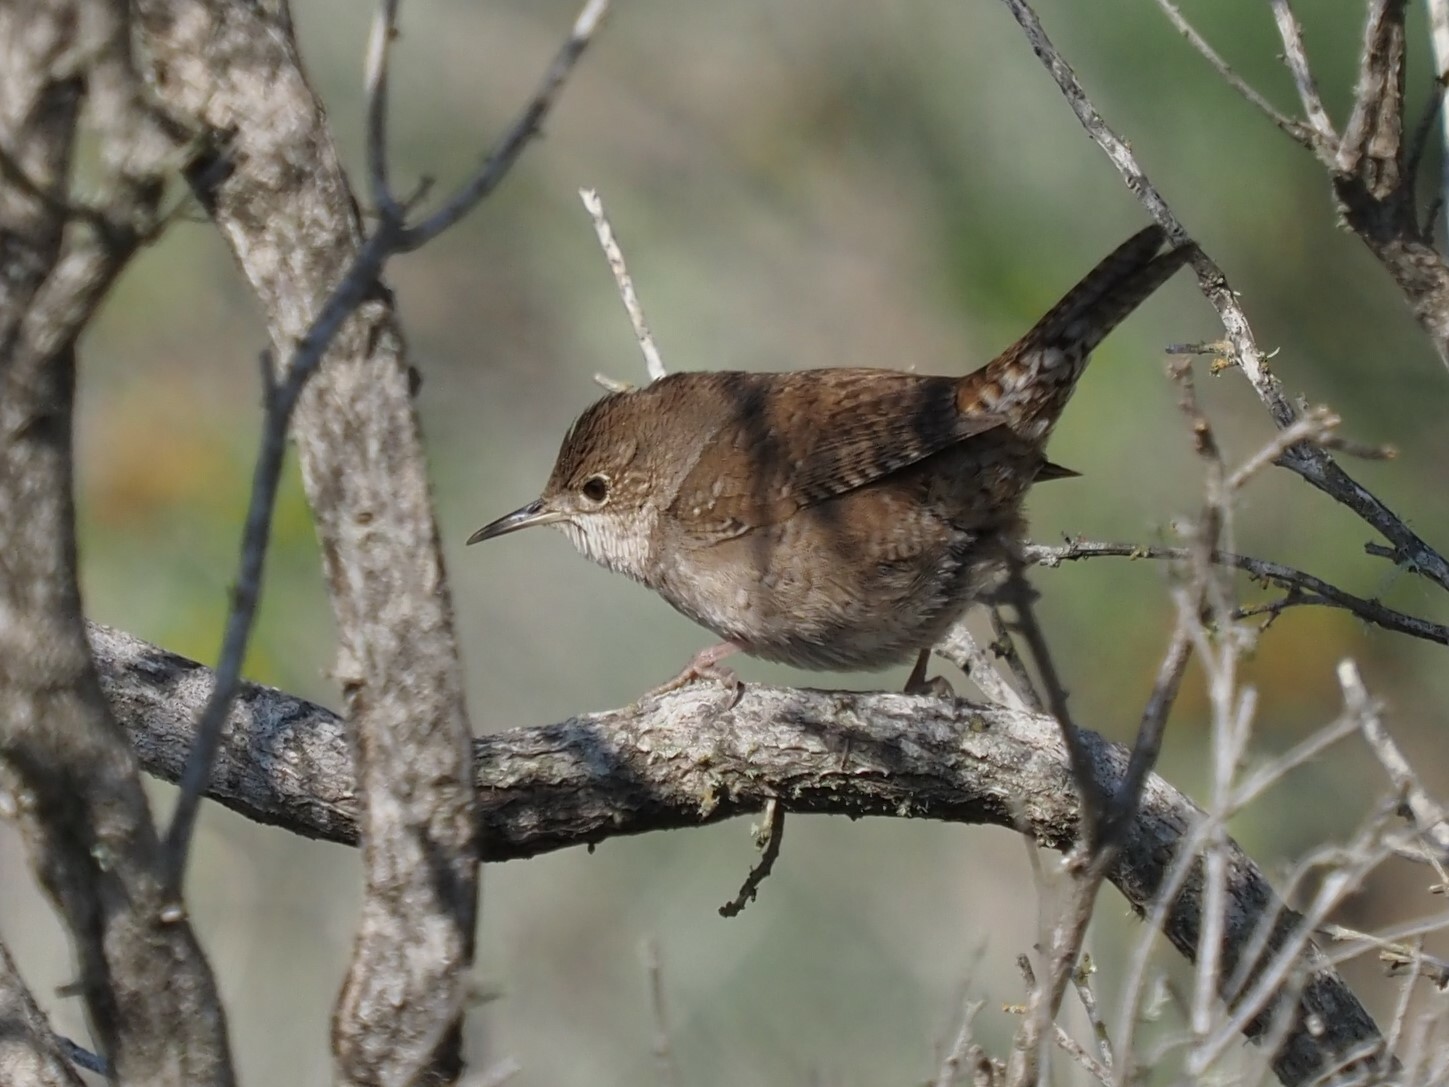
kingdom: Animalia
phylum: Chordata
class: Aves
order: Passeriformes
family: Troglodytidae
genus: Troglodytes
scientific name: Troglodytes aedon
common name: House wren
